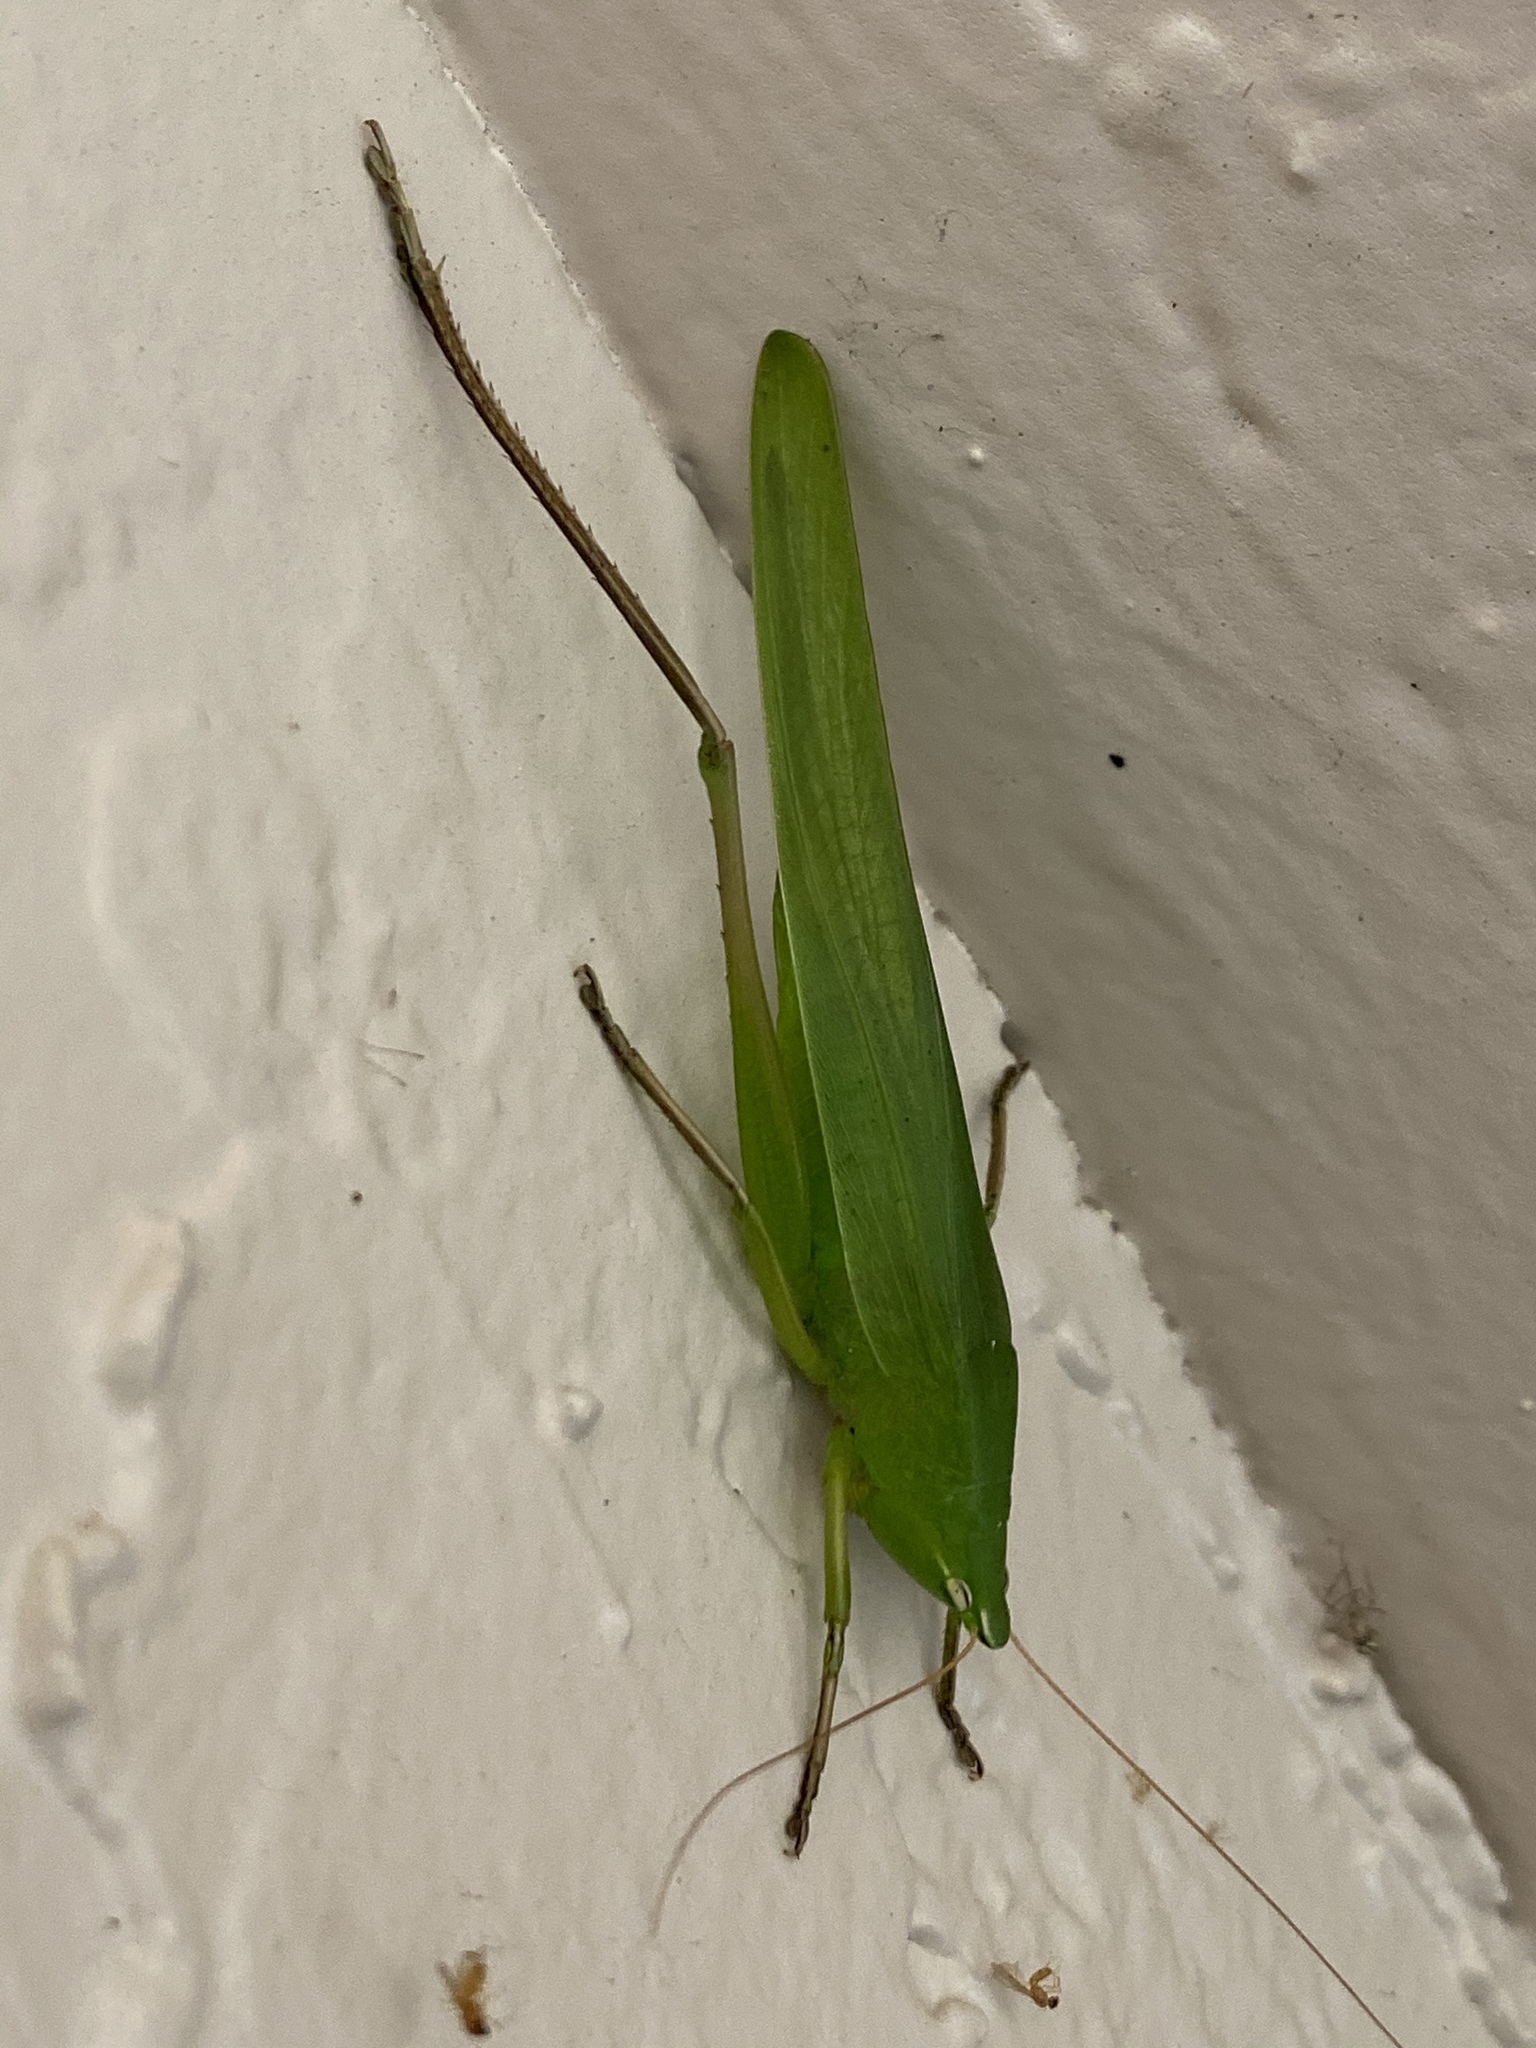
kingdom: Animalia
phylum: Arthropoda
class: Insecta
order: Orthoptera
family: Tettigoniidae
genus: Neoconocephalus
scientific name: Neoconocephalus triops
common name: Broad-tipped conehead
